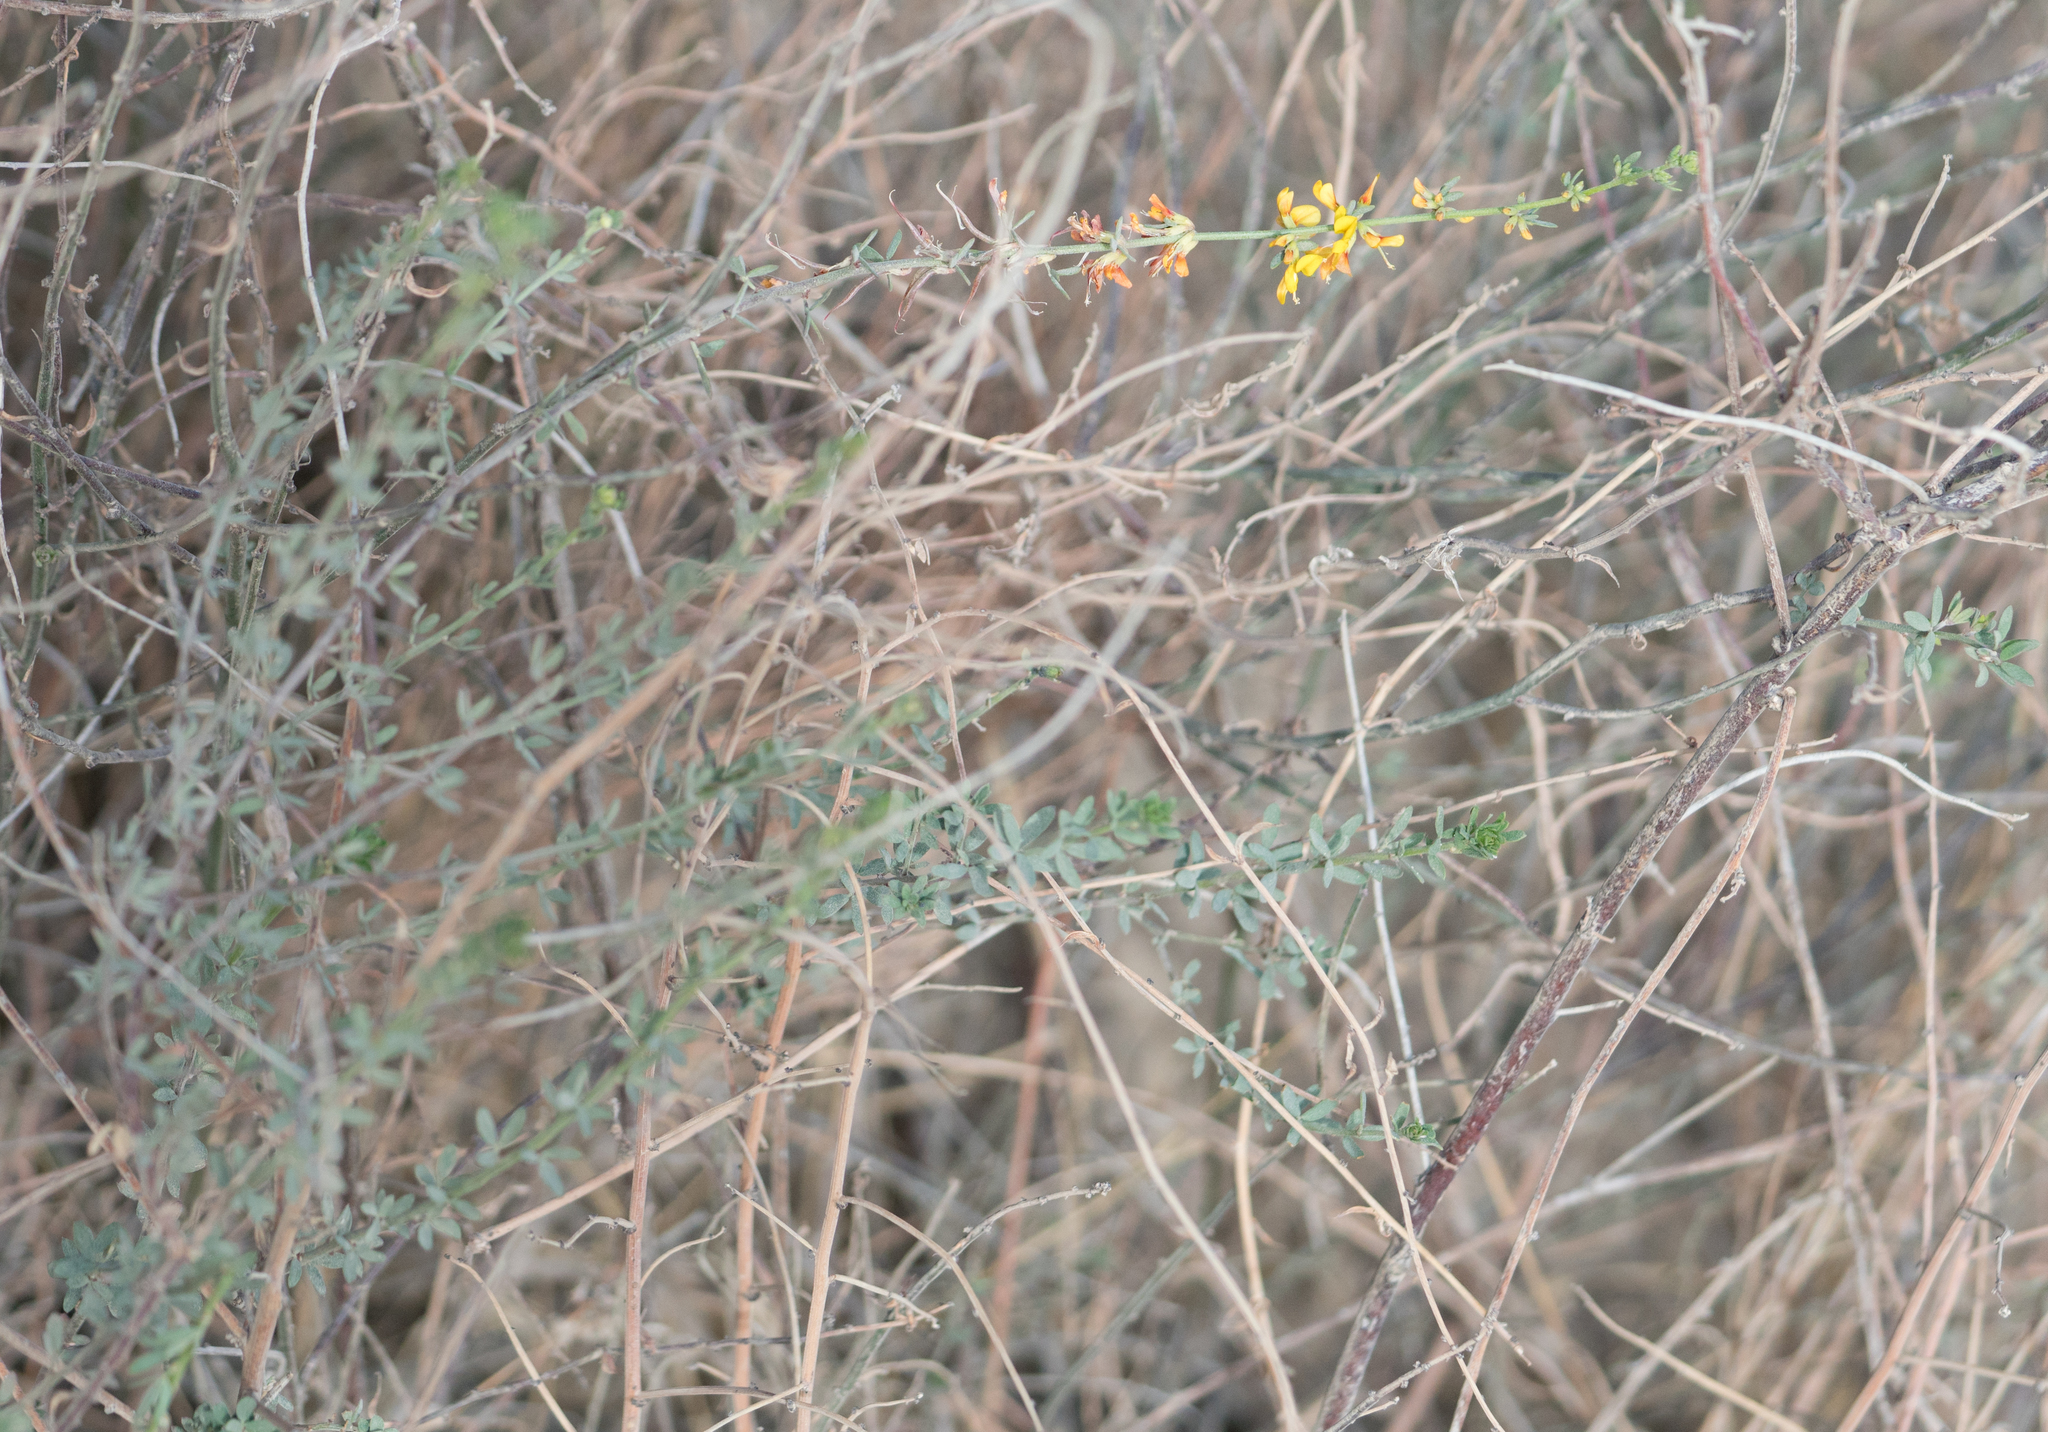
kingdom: Plantae
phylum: Tracheophyta
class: Magnoliopsida
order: Fabales
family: Fabaceae
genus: Acmispon
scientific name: Acmispon glaber
